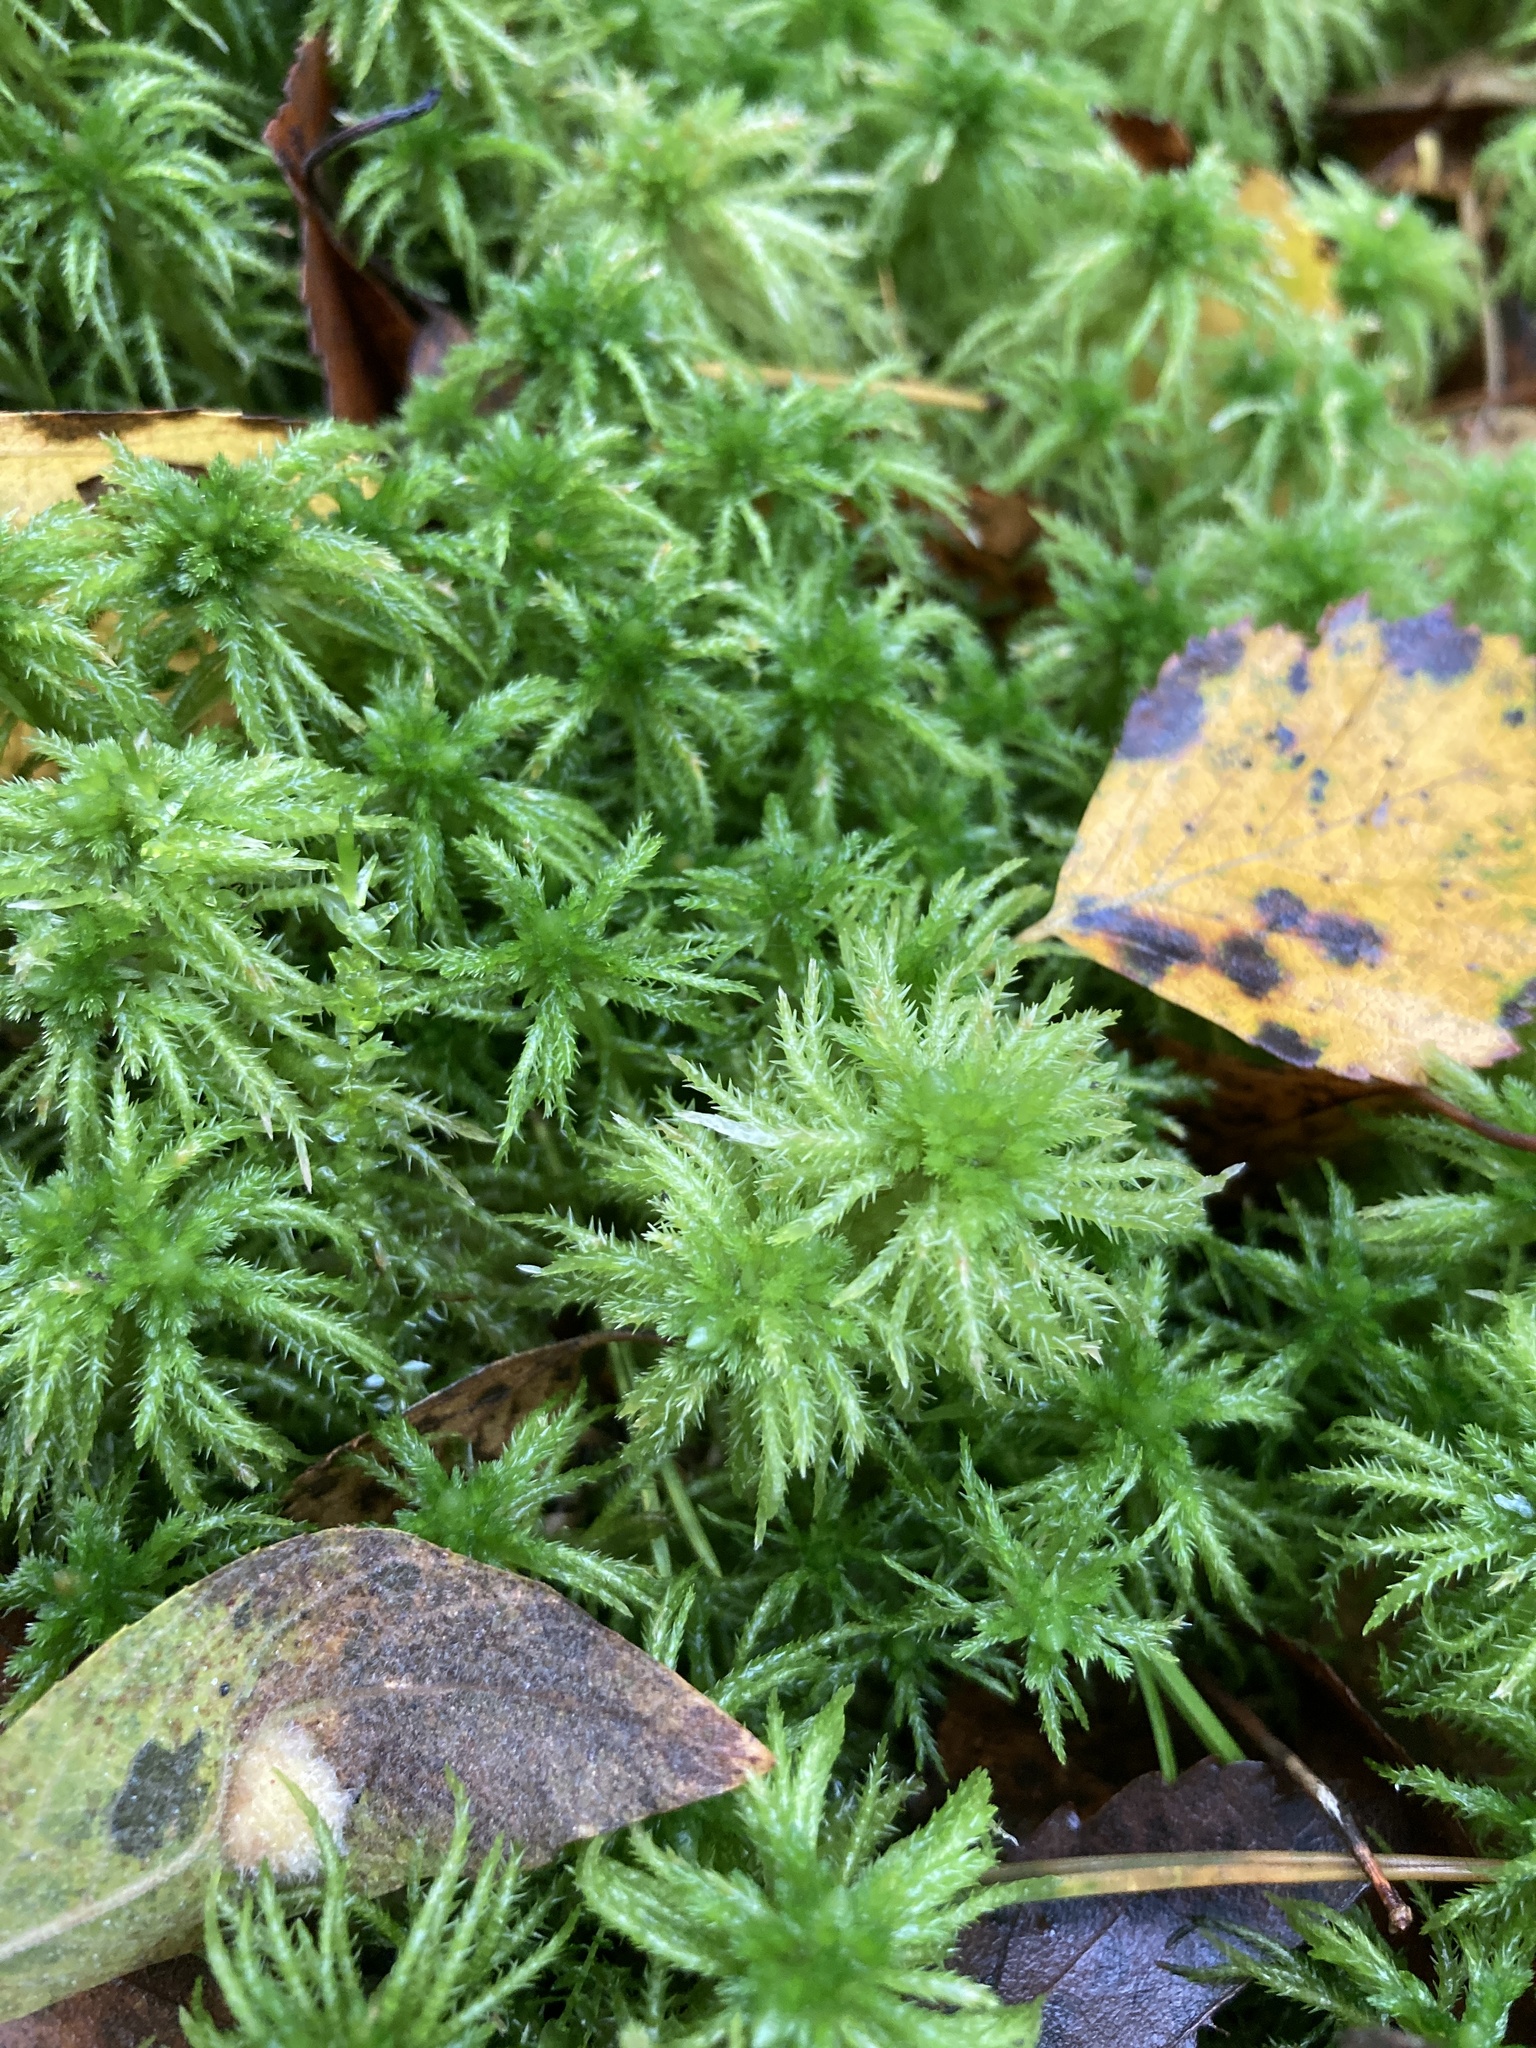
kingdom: Plantae
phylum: Bryophyta
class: Sphagnopsida
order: Sphagnales
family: Sphagnaceae
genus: Sphagnum
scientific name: Sphagnum squarrosum
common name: Shaggy peat moss
